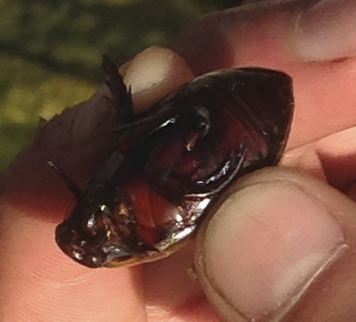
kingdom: Animalia
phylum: Arthropoda
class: Insecta
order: Coleoptera
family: Dytiscidae
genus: Cybister
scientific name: Cybister explanatus
